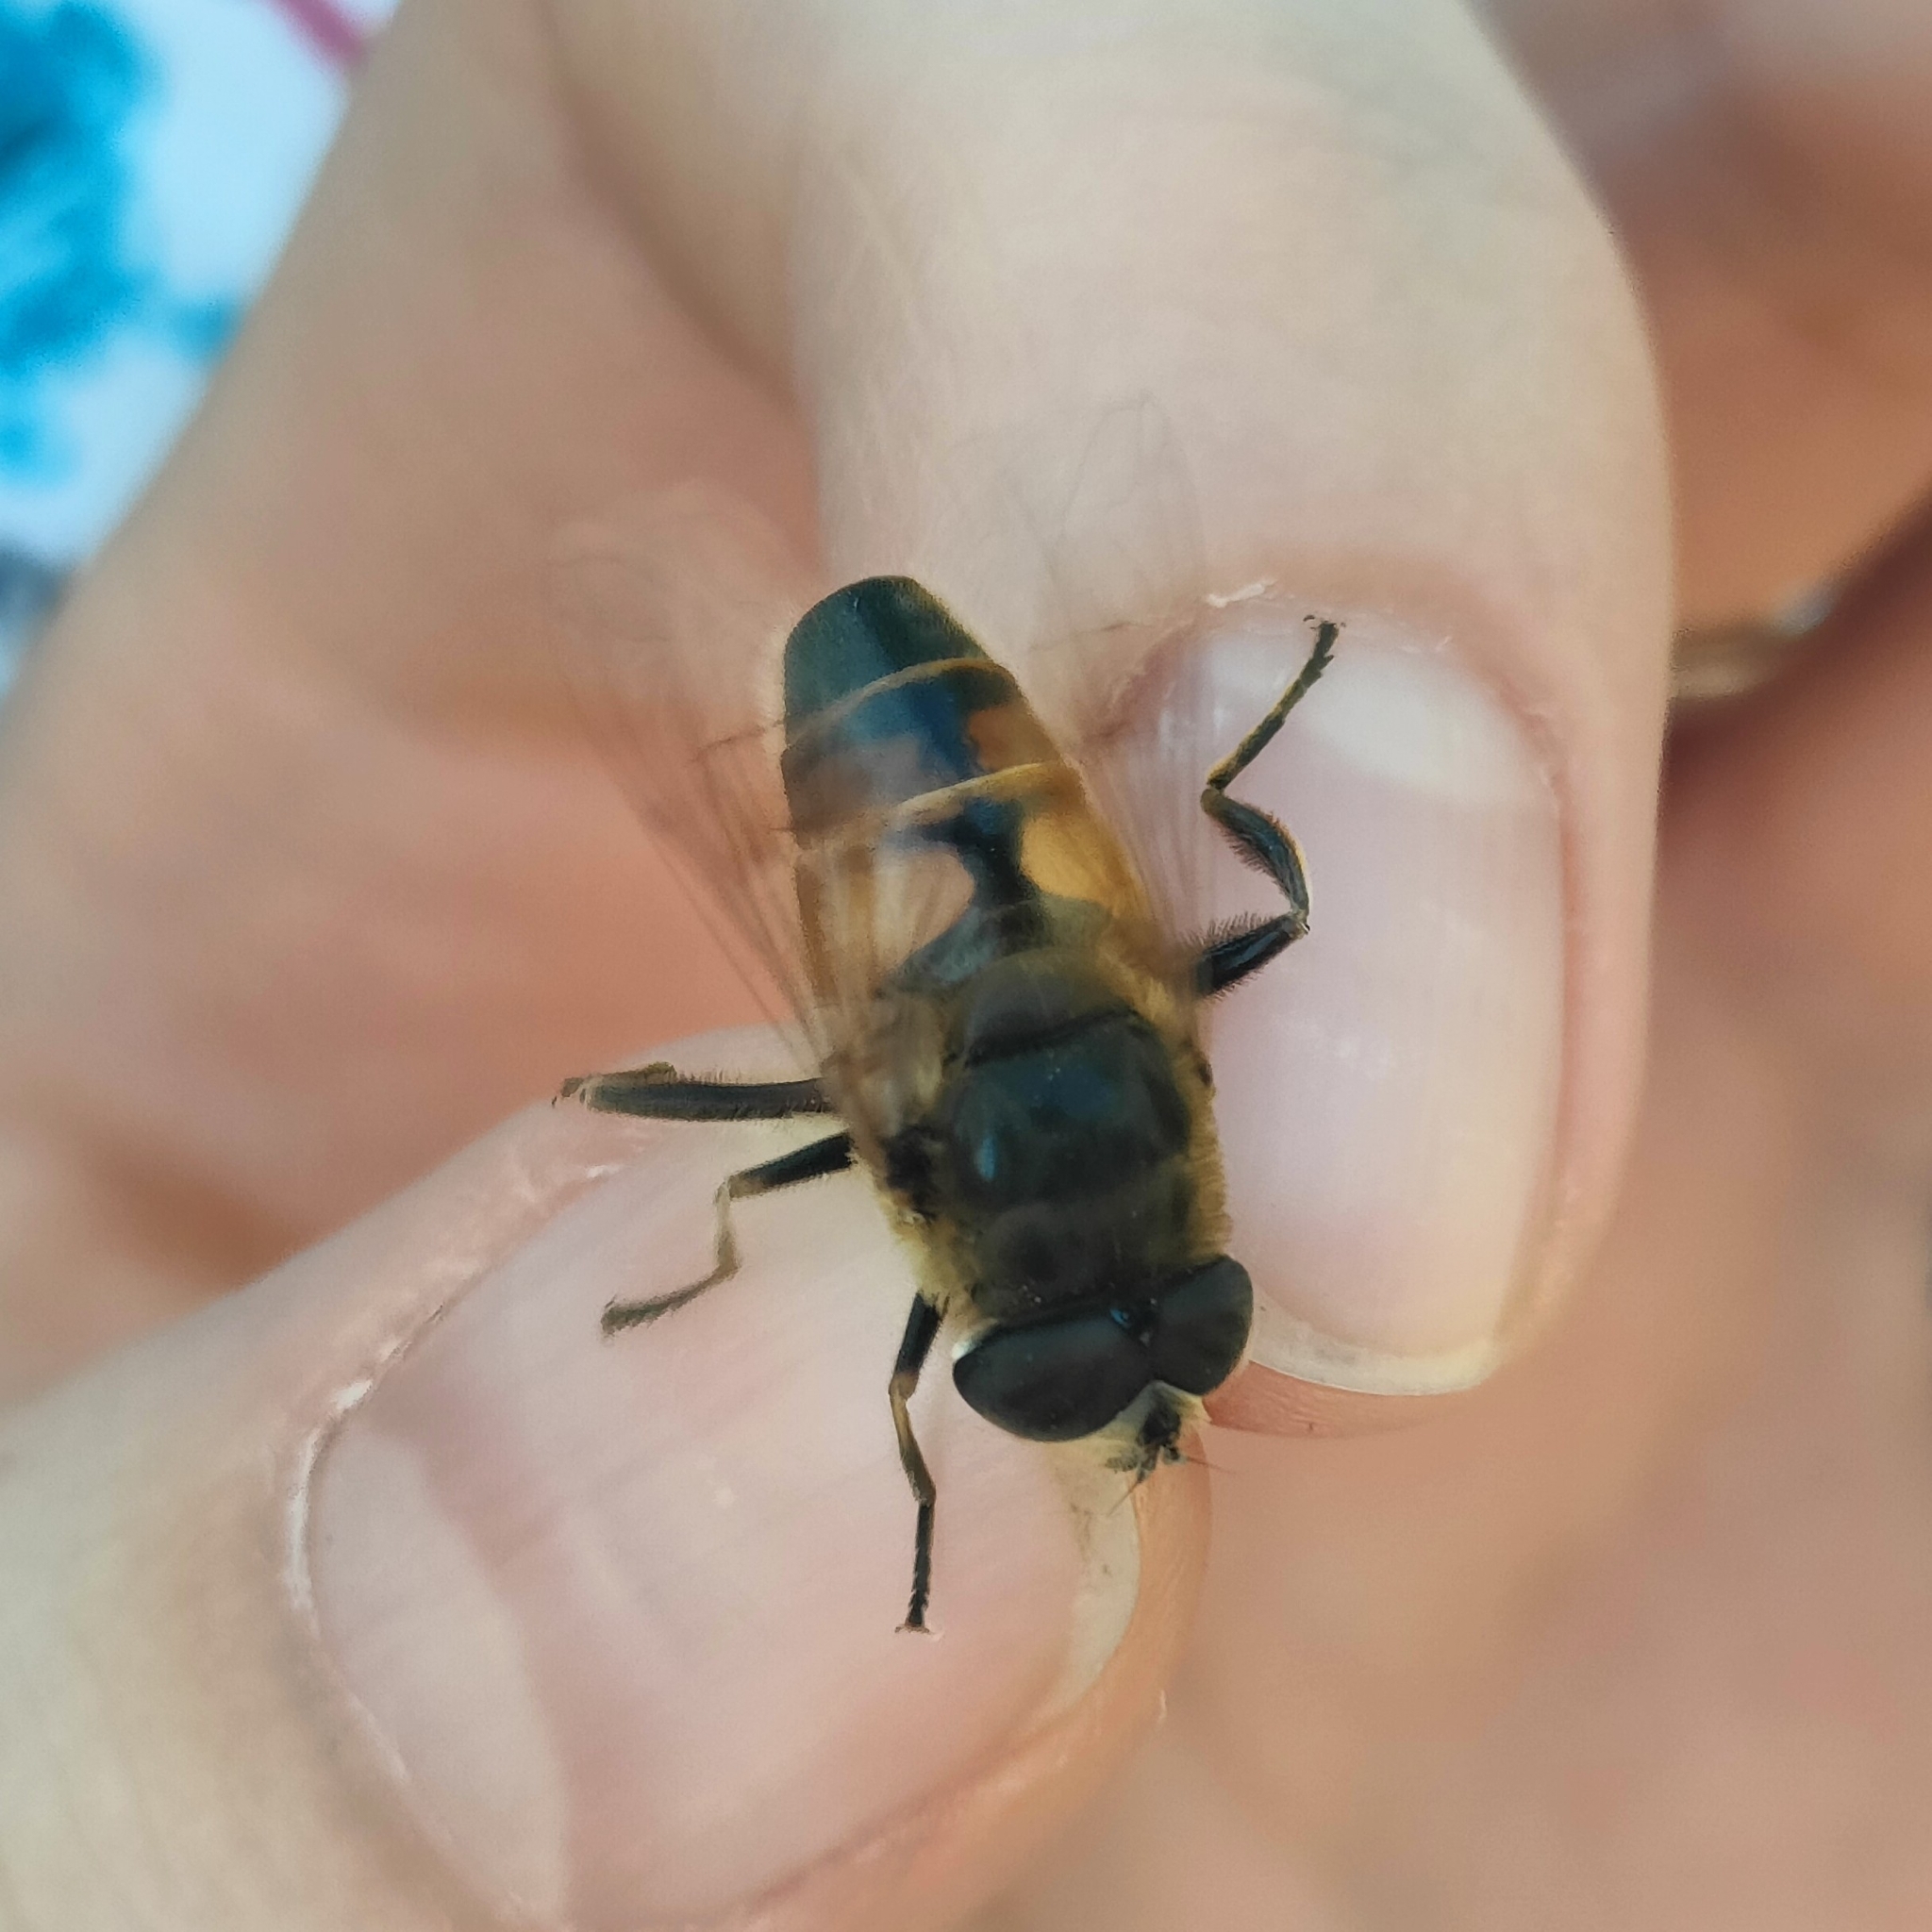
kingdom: Animalia
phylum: Arthropoda
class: Insecta
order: Diptera
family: Syrphidae
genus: Eristalis
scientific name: Eristalis tenax
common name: Drone fly
